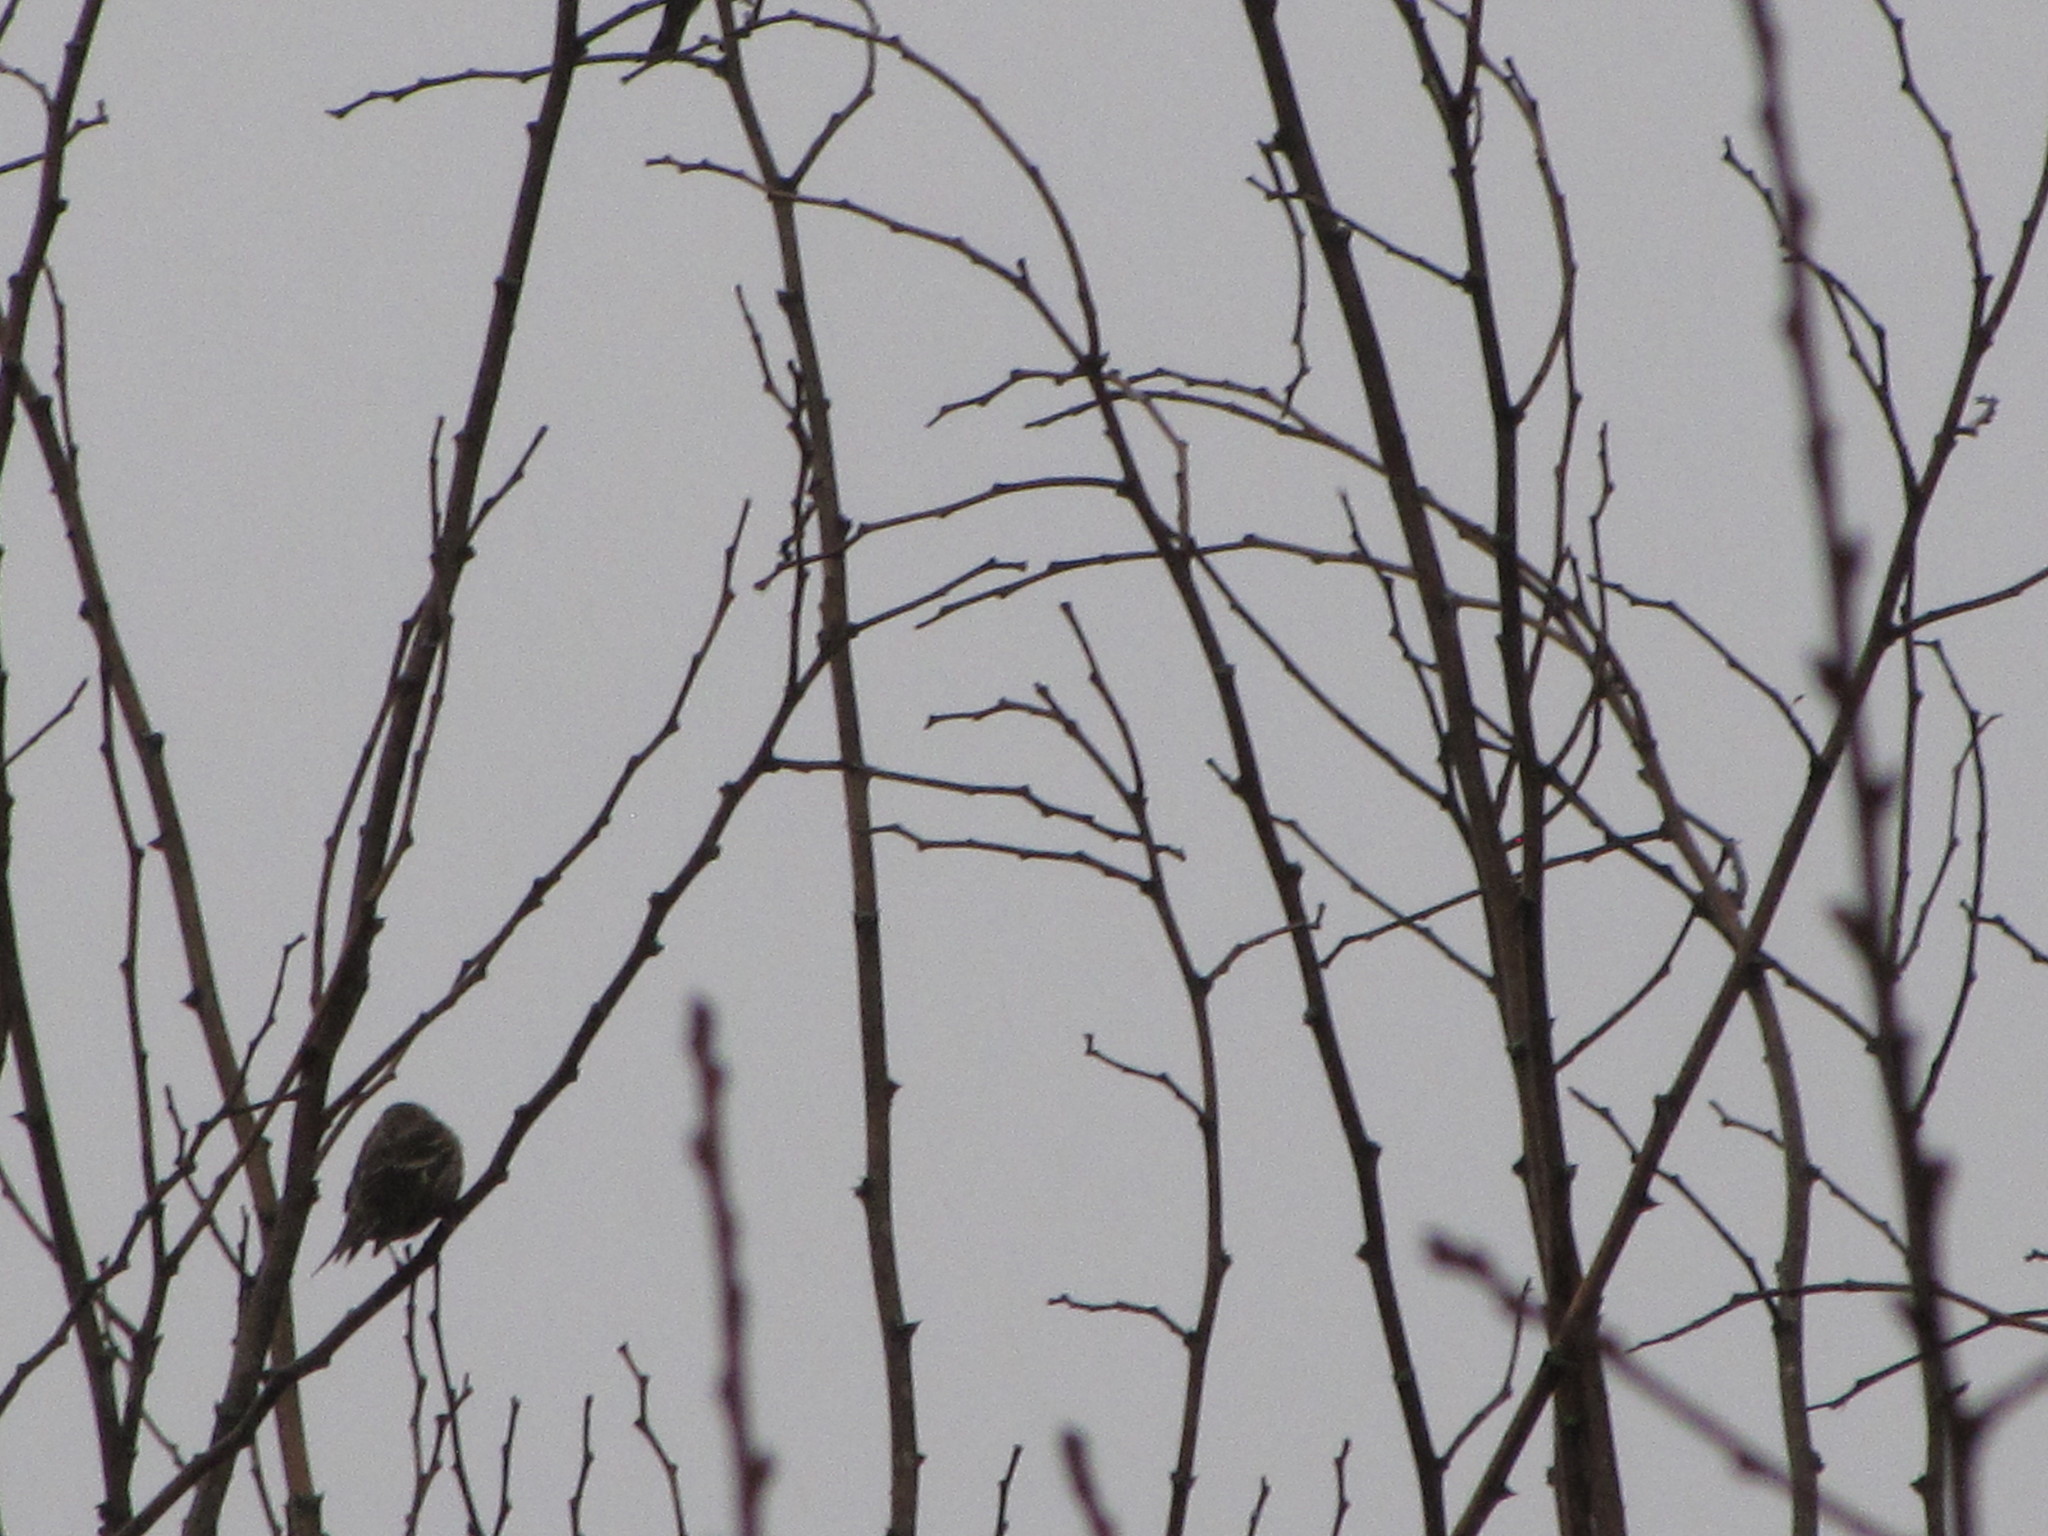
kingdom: Animalia
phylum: Chordata
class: Aves
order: Passeriformes
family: Fringillidae
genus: Spinus
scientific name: Spinus pinus
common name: Pine siskin
